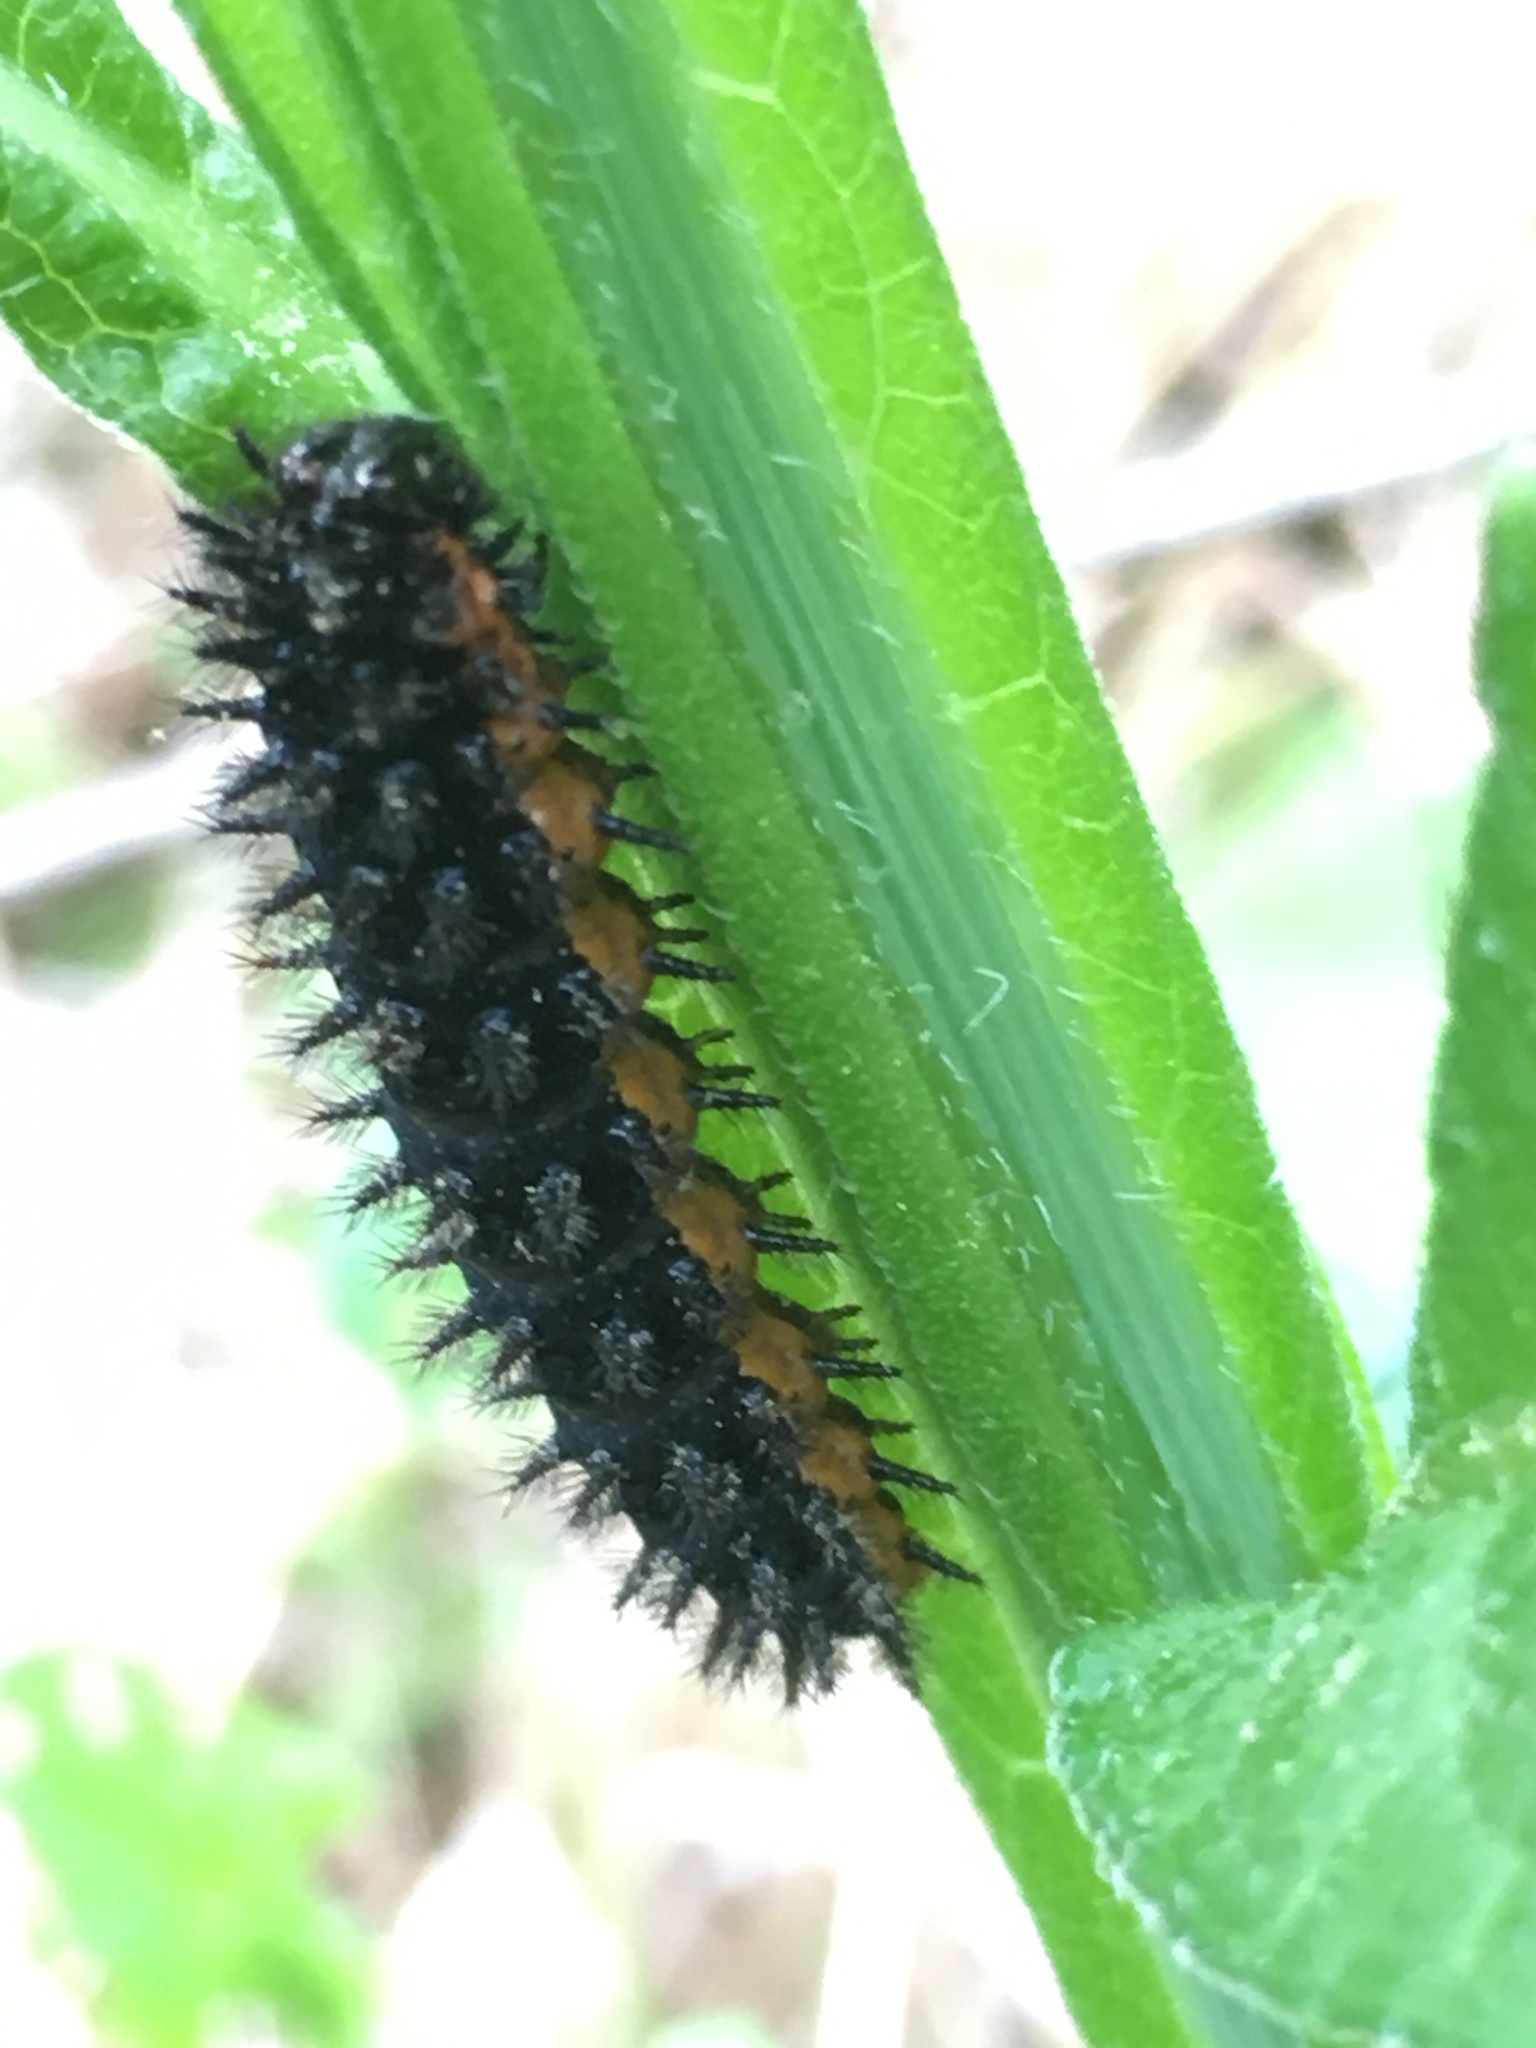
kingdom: Animalia
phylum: Arthropoda
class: Insecta
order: Lepidoptera
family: Nymphalidae
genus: Chlosyne
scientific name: Chlosyne nycteis
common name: Silvery checkerspot
